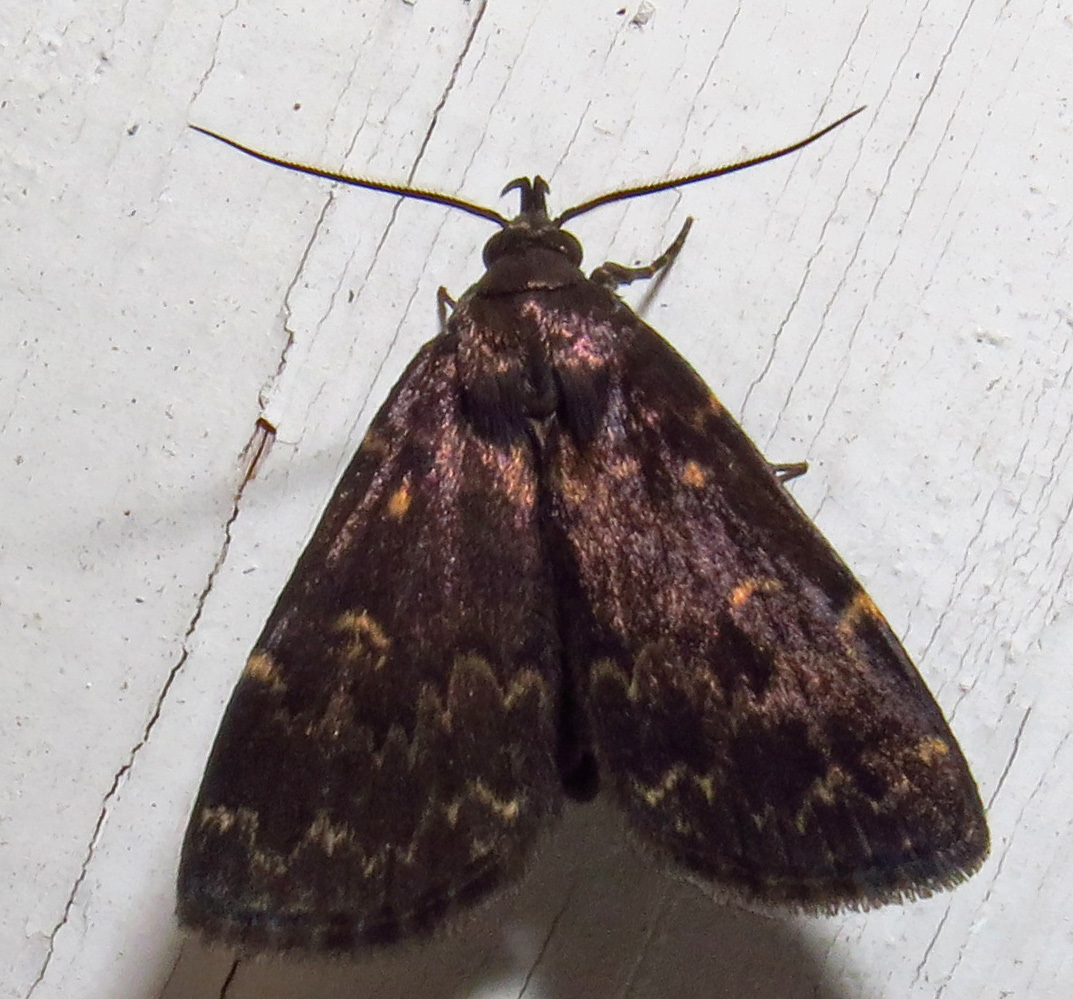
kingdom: Animalia
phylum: Arthropoda
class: Insecta
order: Lepidoptera
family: Erebidae
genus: Idia
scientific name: Idia lubricalis
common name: Twin-striped tabby
